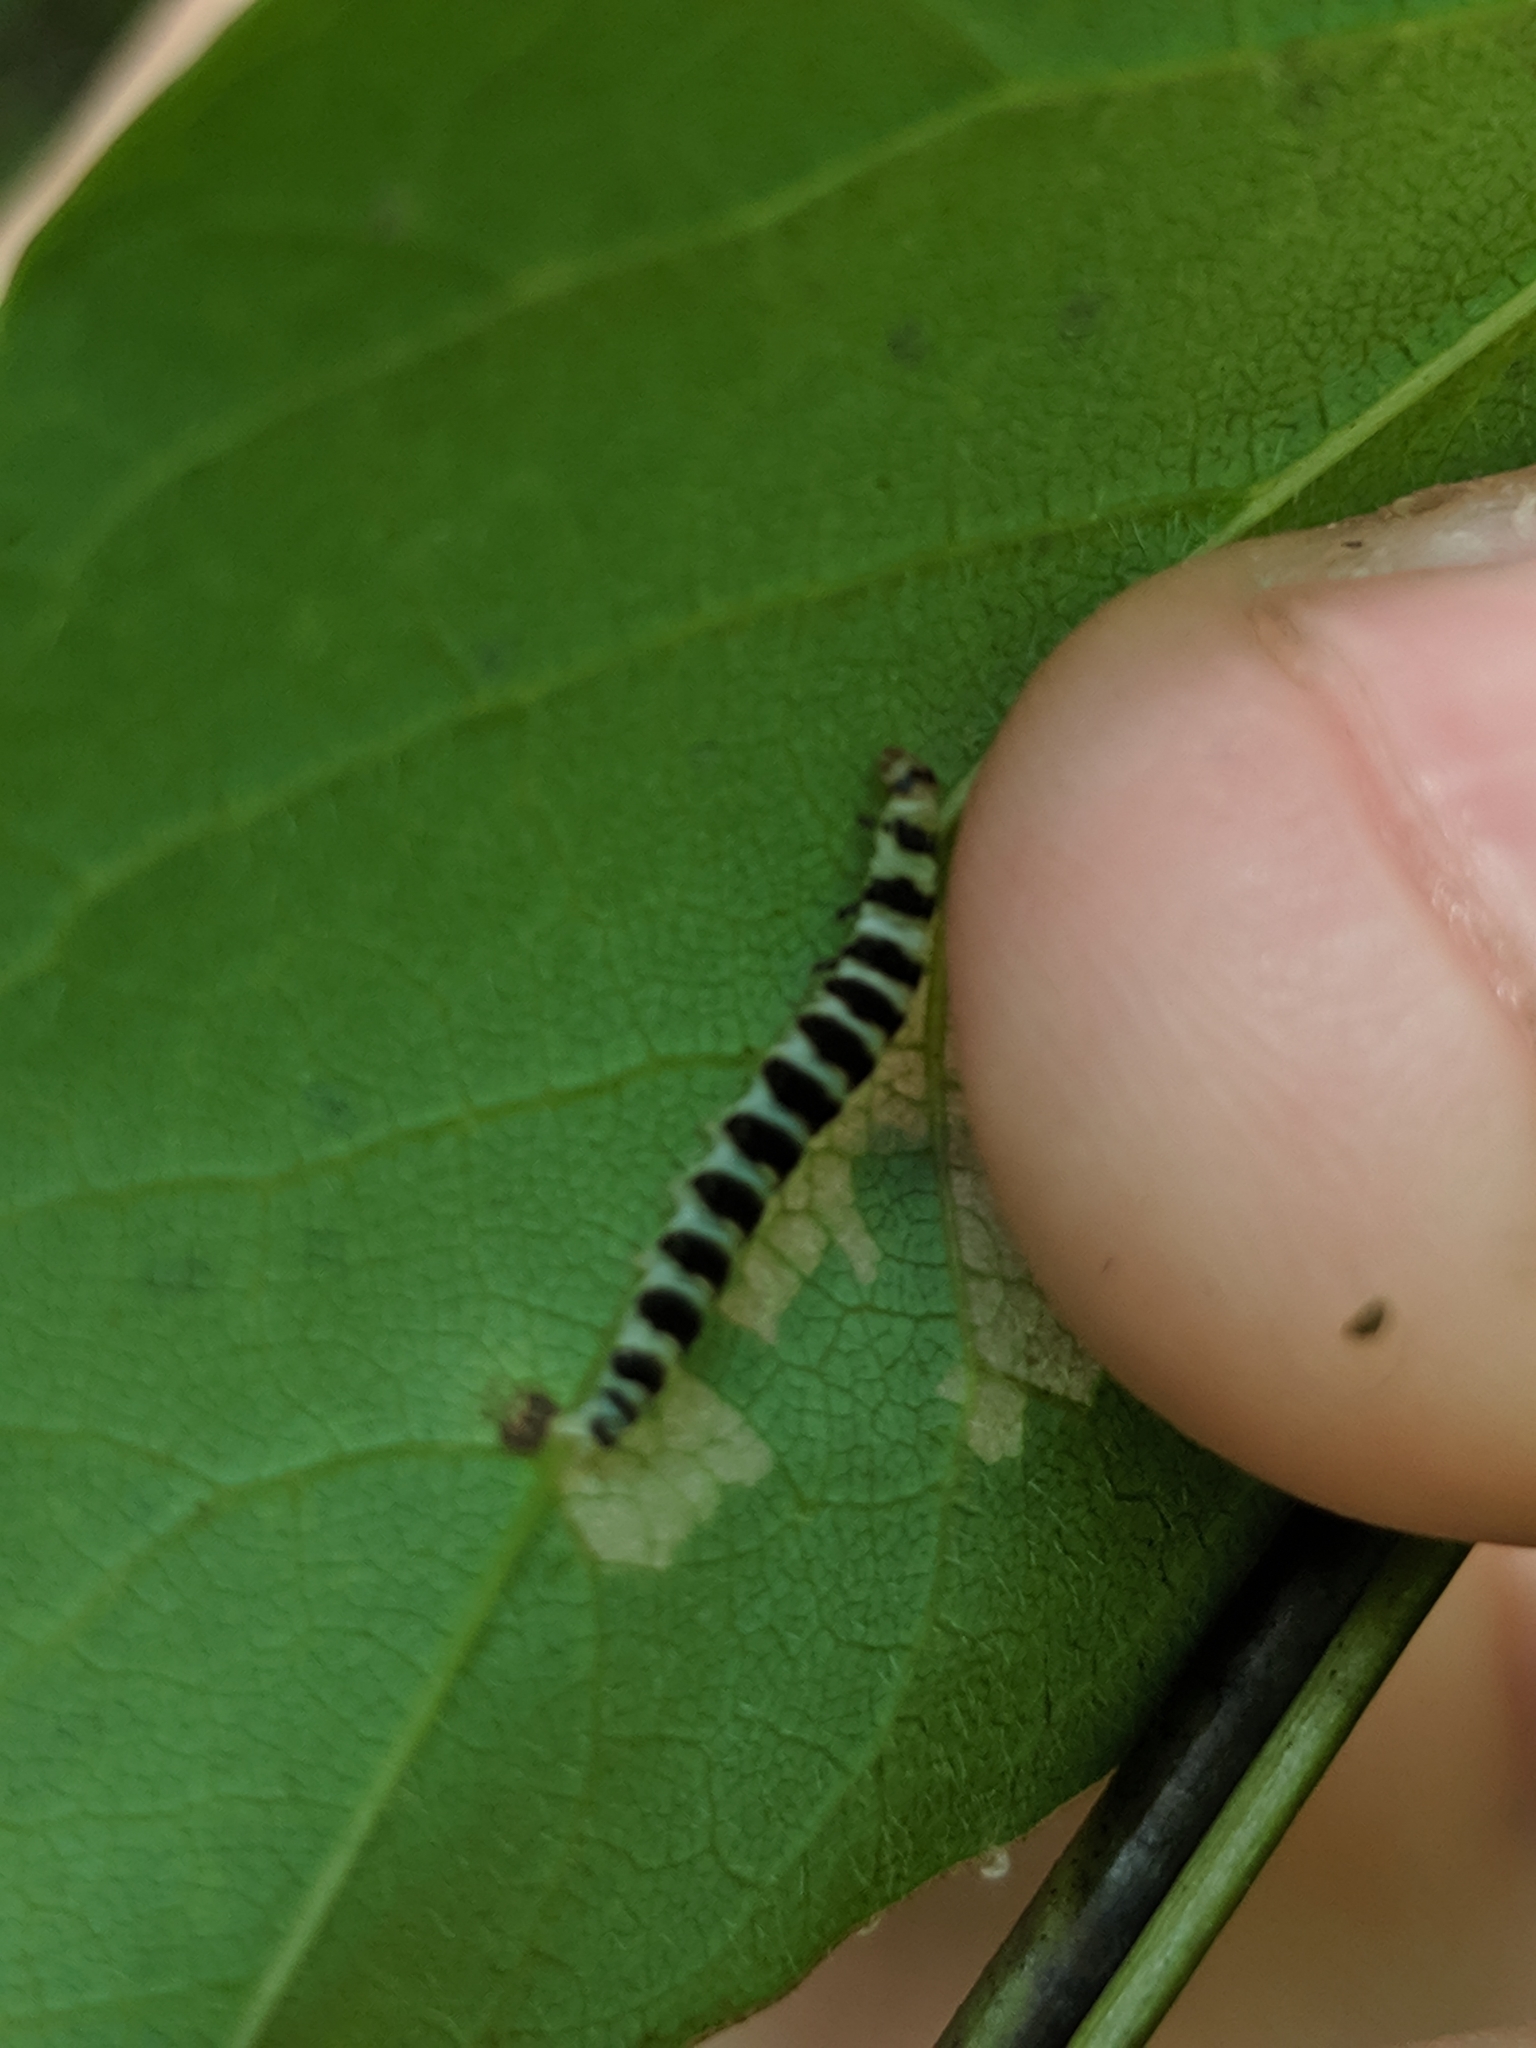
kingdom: Animalia
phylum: Arthropoda
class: Insecta
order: Lepidoptera
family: Gelechiidae
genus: Fascista
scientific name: Fascista cercerisella
